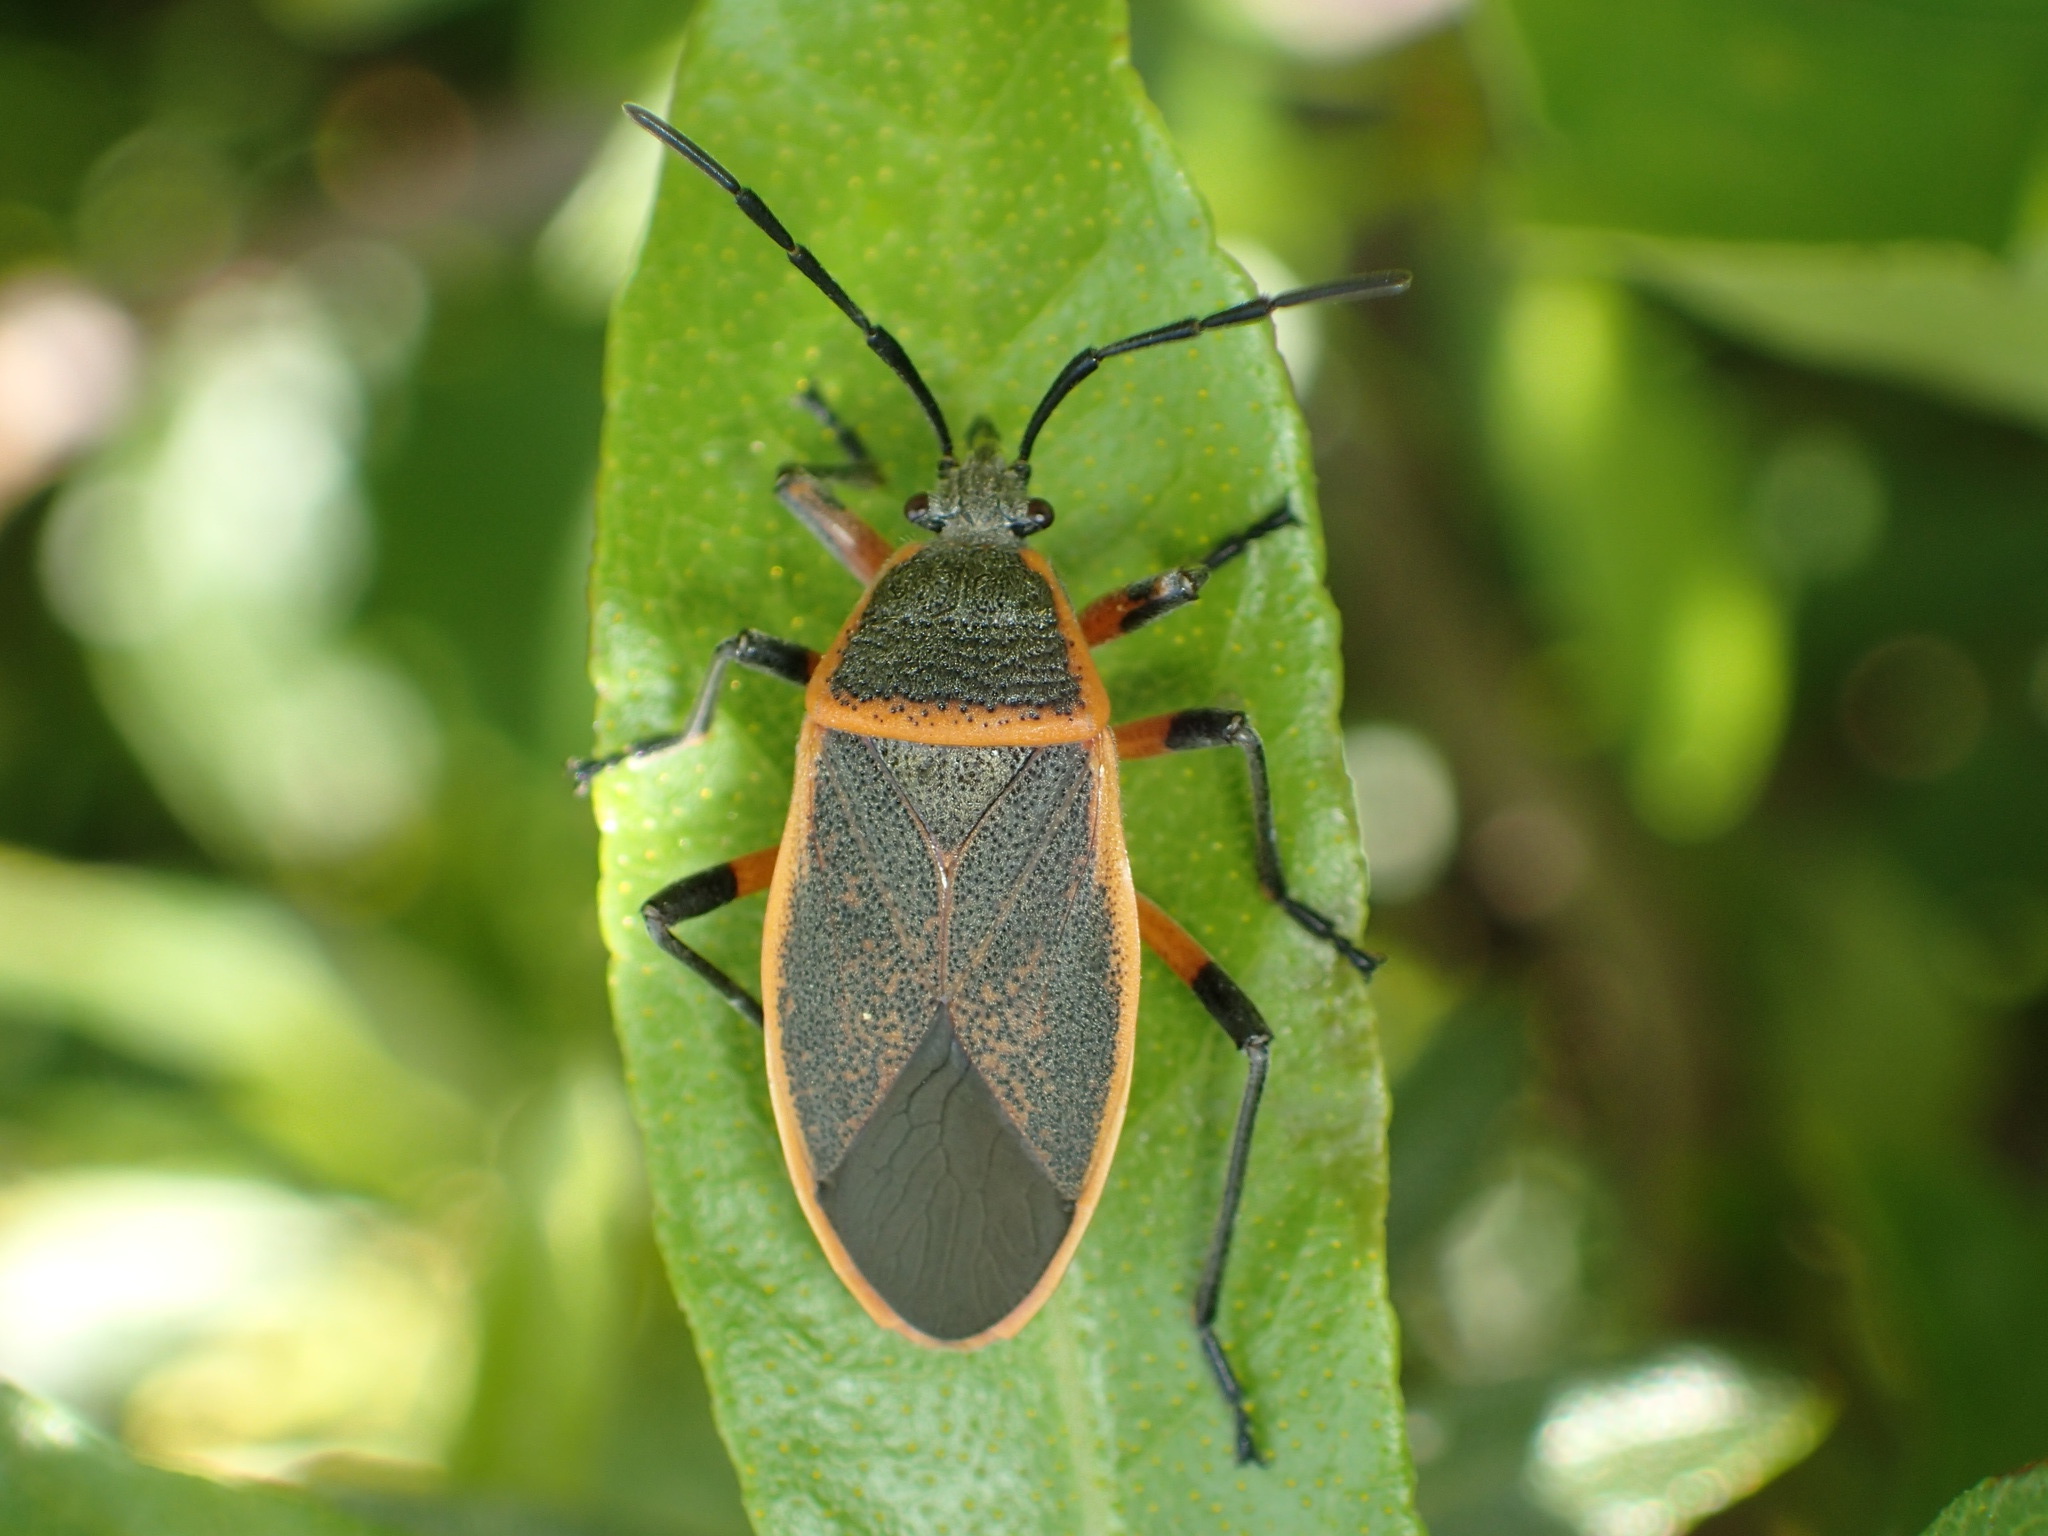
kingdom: Animalia
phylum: Arthropoda
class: Insecta
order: Hemiptera
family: Largidae
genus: Largus
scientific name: Largus succinctus
